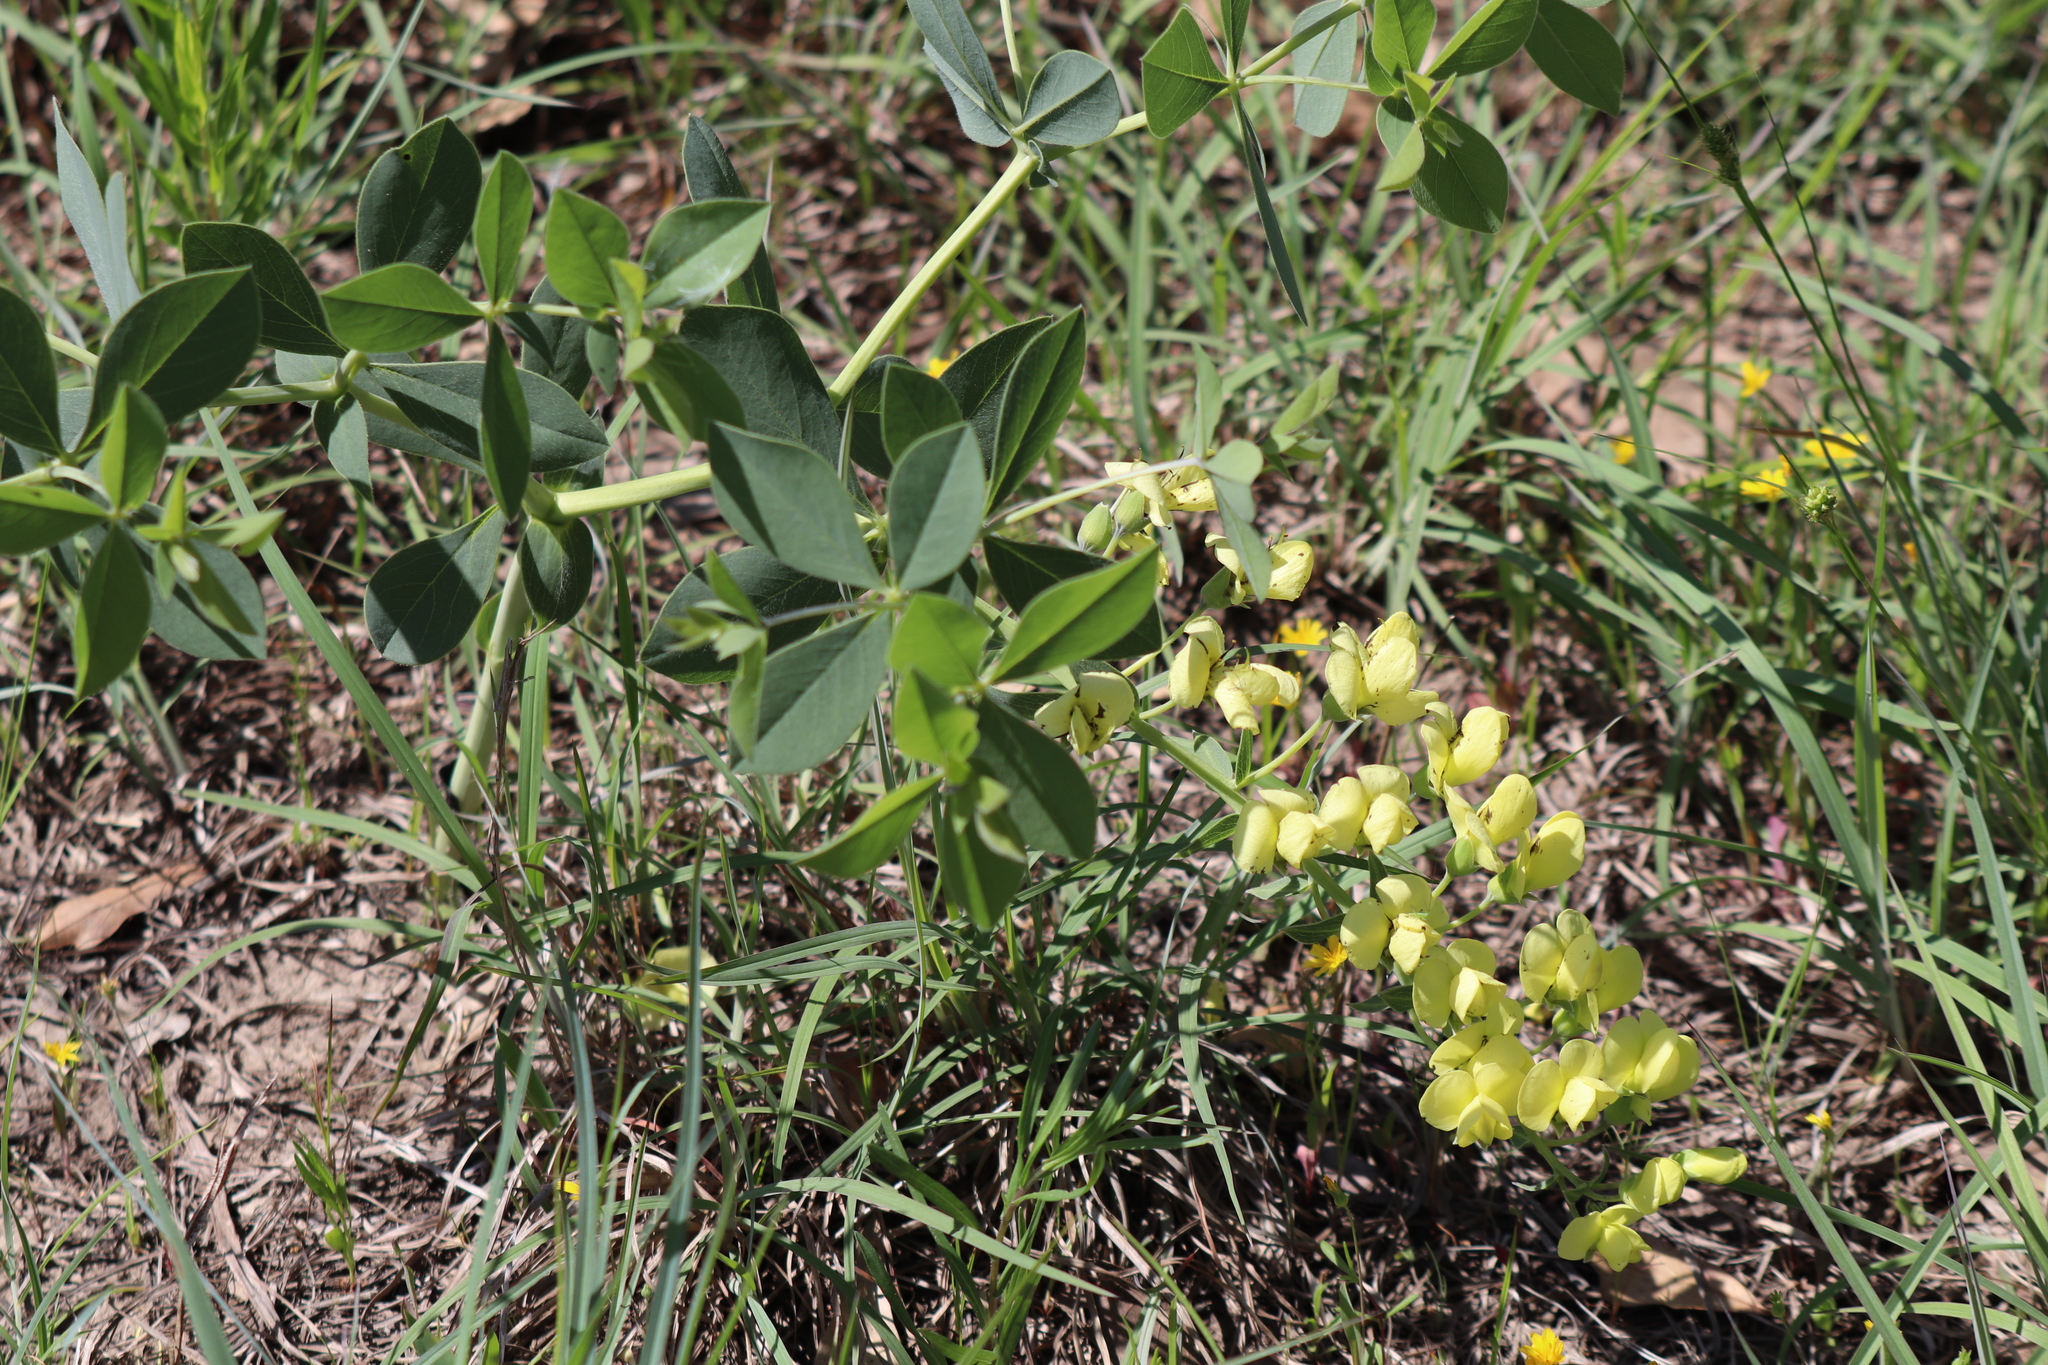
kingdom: Plantae
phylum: Tracheophyta
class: Magnoliopsida
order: Fabales
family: Fabaceae
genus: Baptisia
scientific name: Baptisia bracteata
